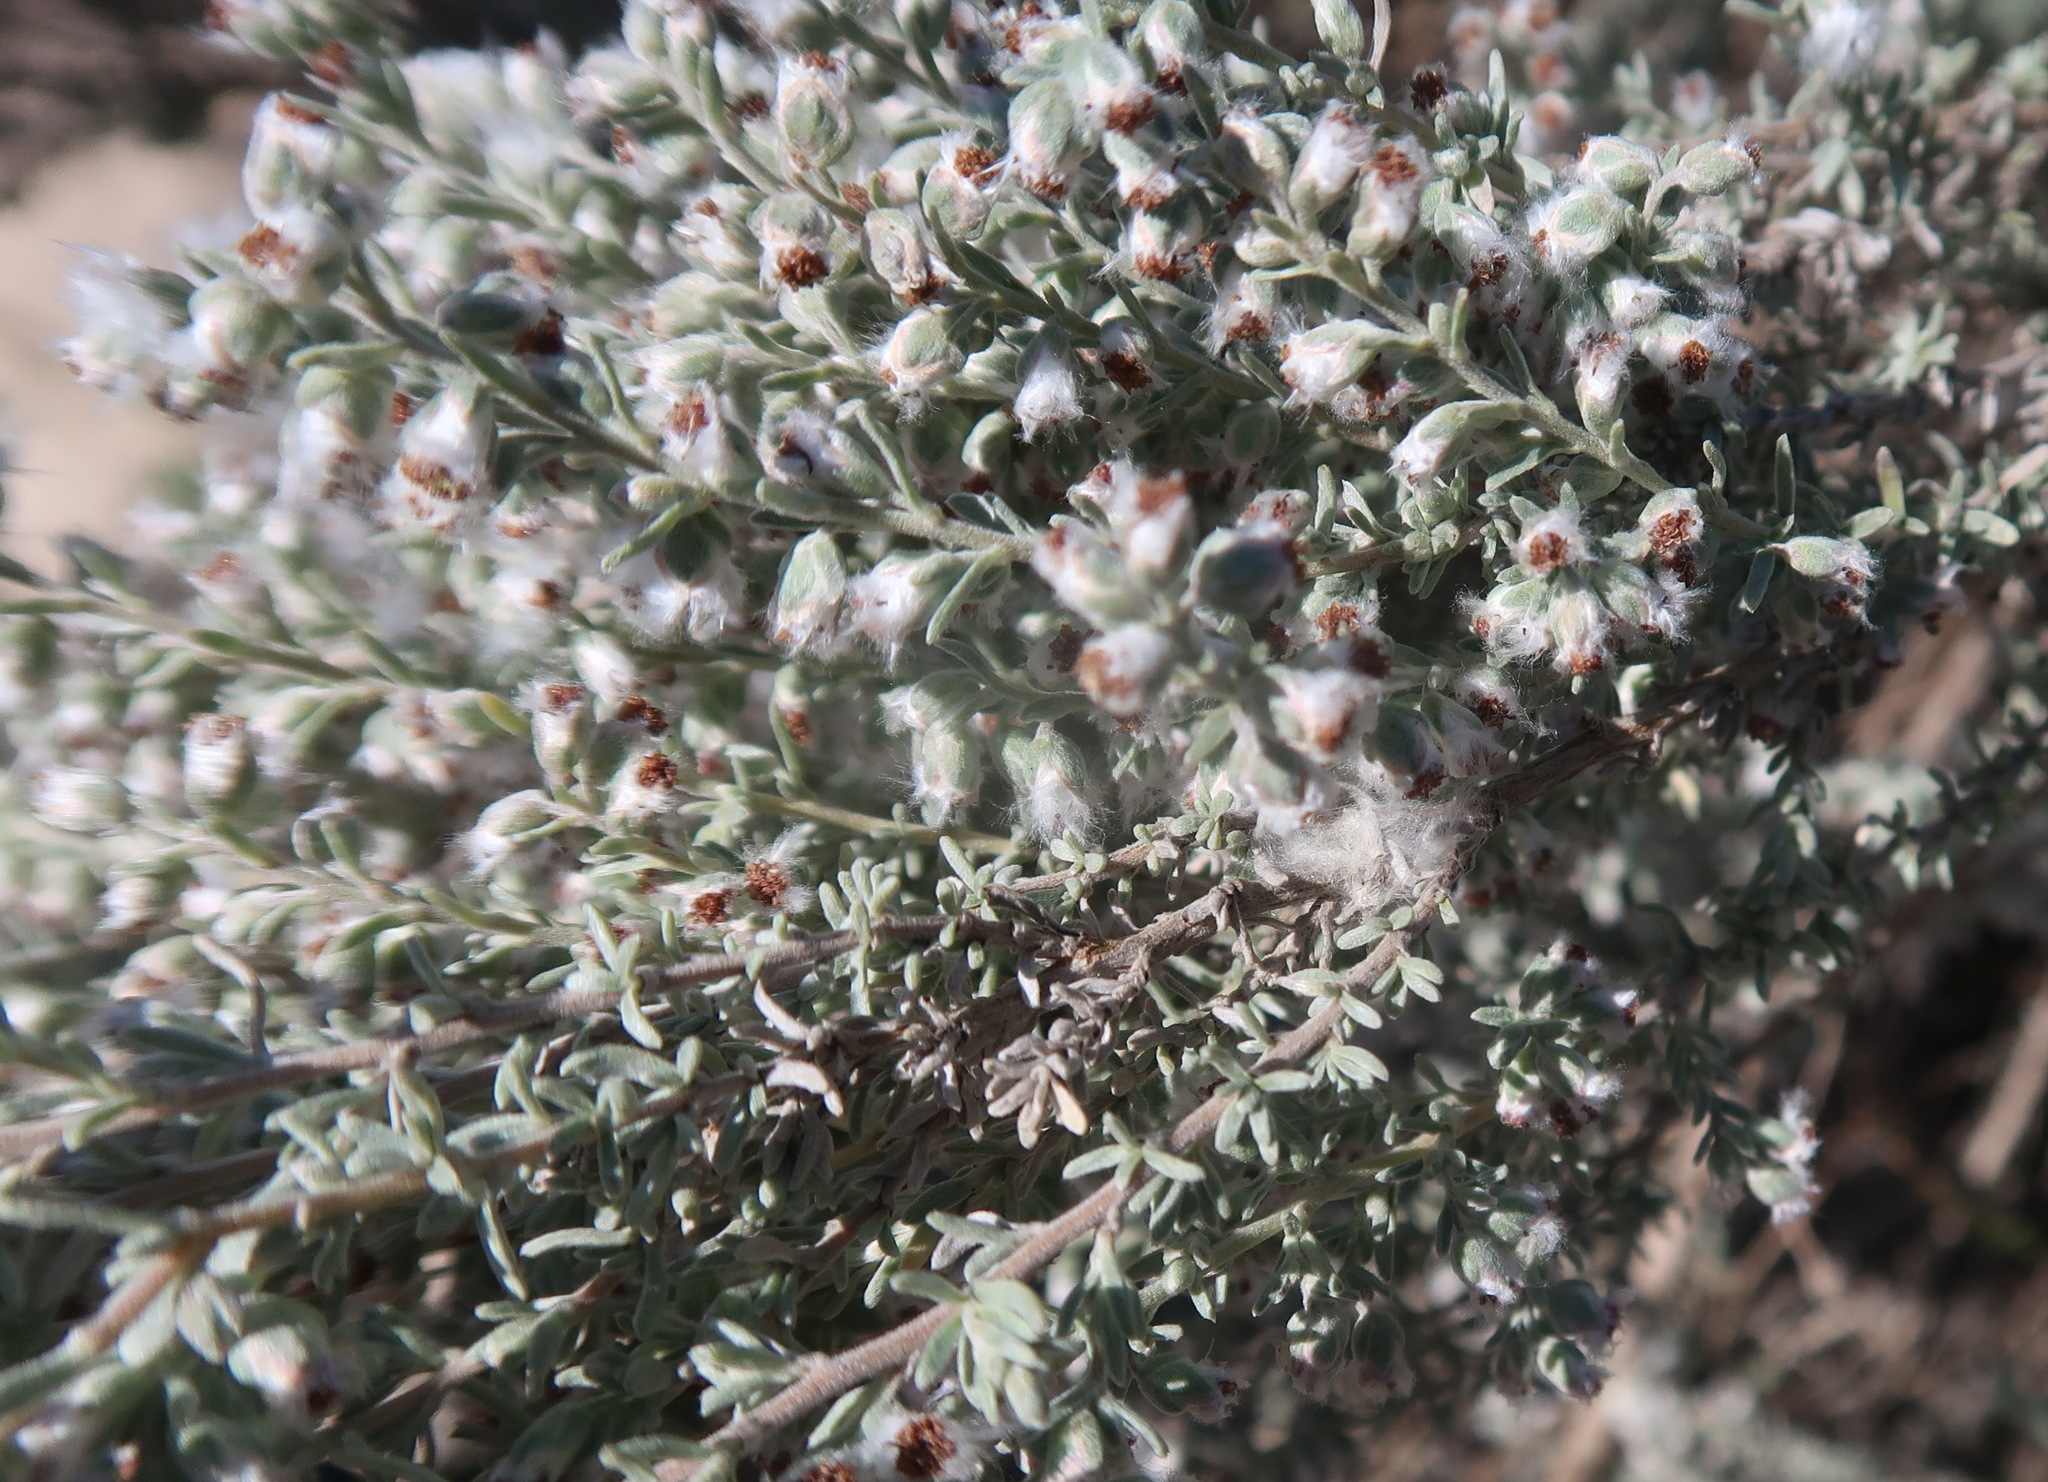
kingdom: Plantae
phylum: Tracheophyta
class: Magnoliopsida
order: Asterales
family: Asteraceae
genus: Eriocephalus
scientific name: Eriocephalus racemosus
